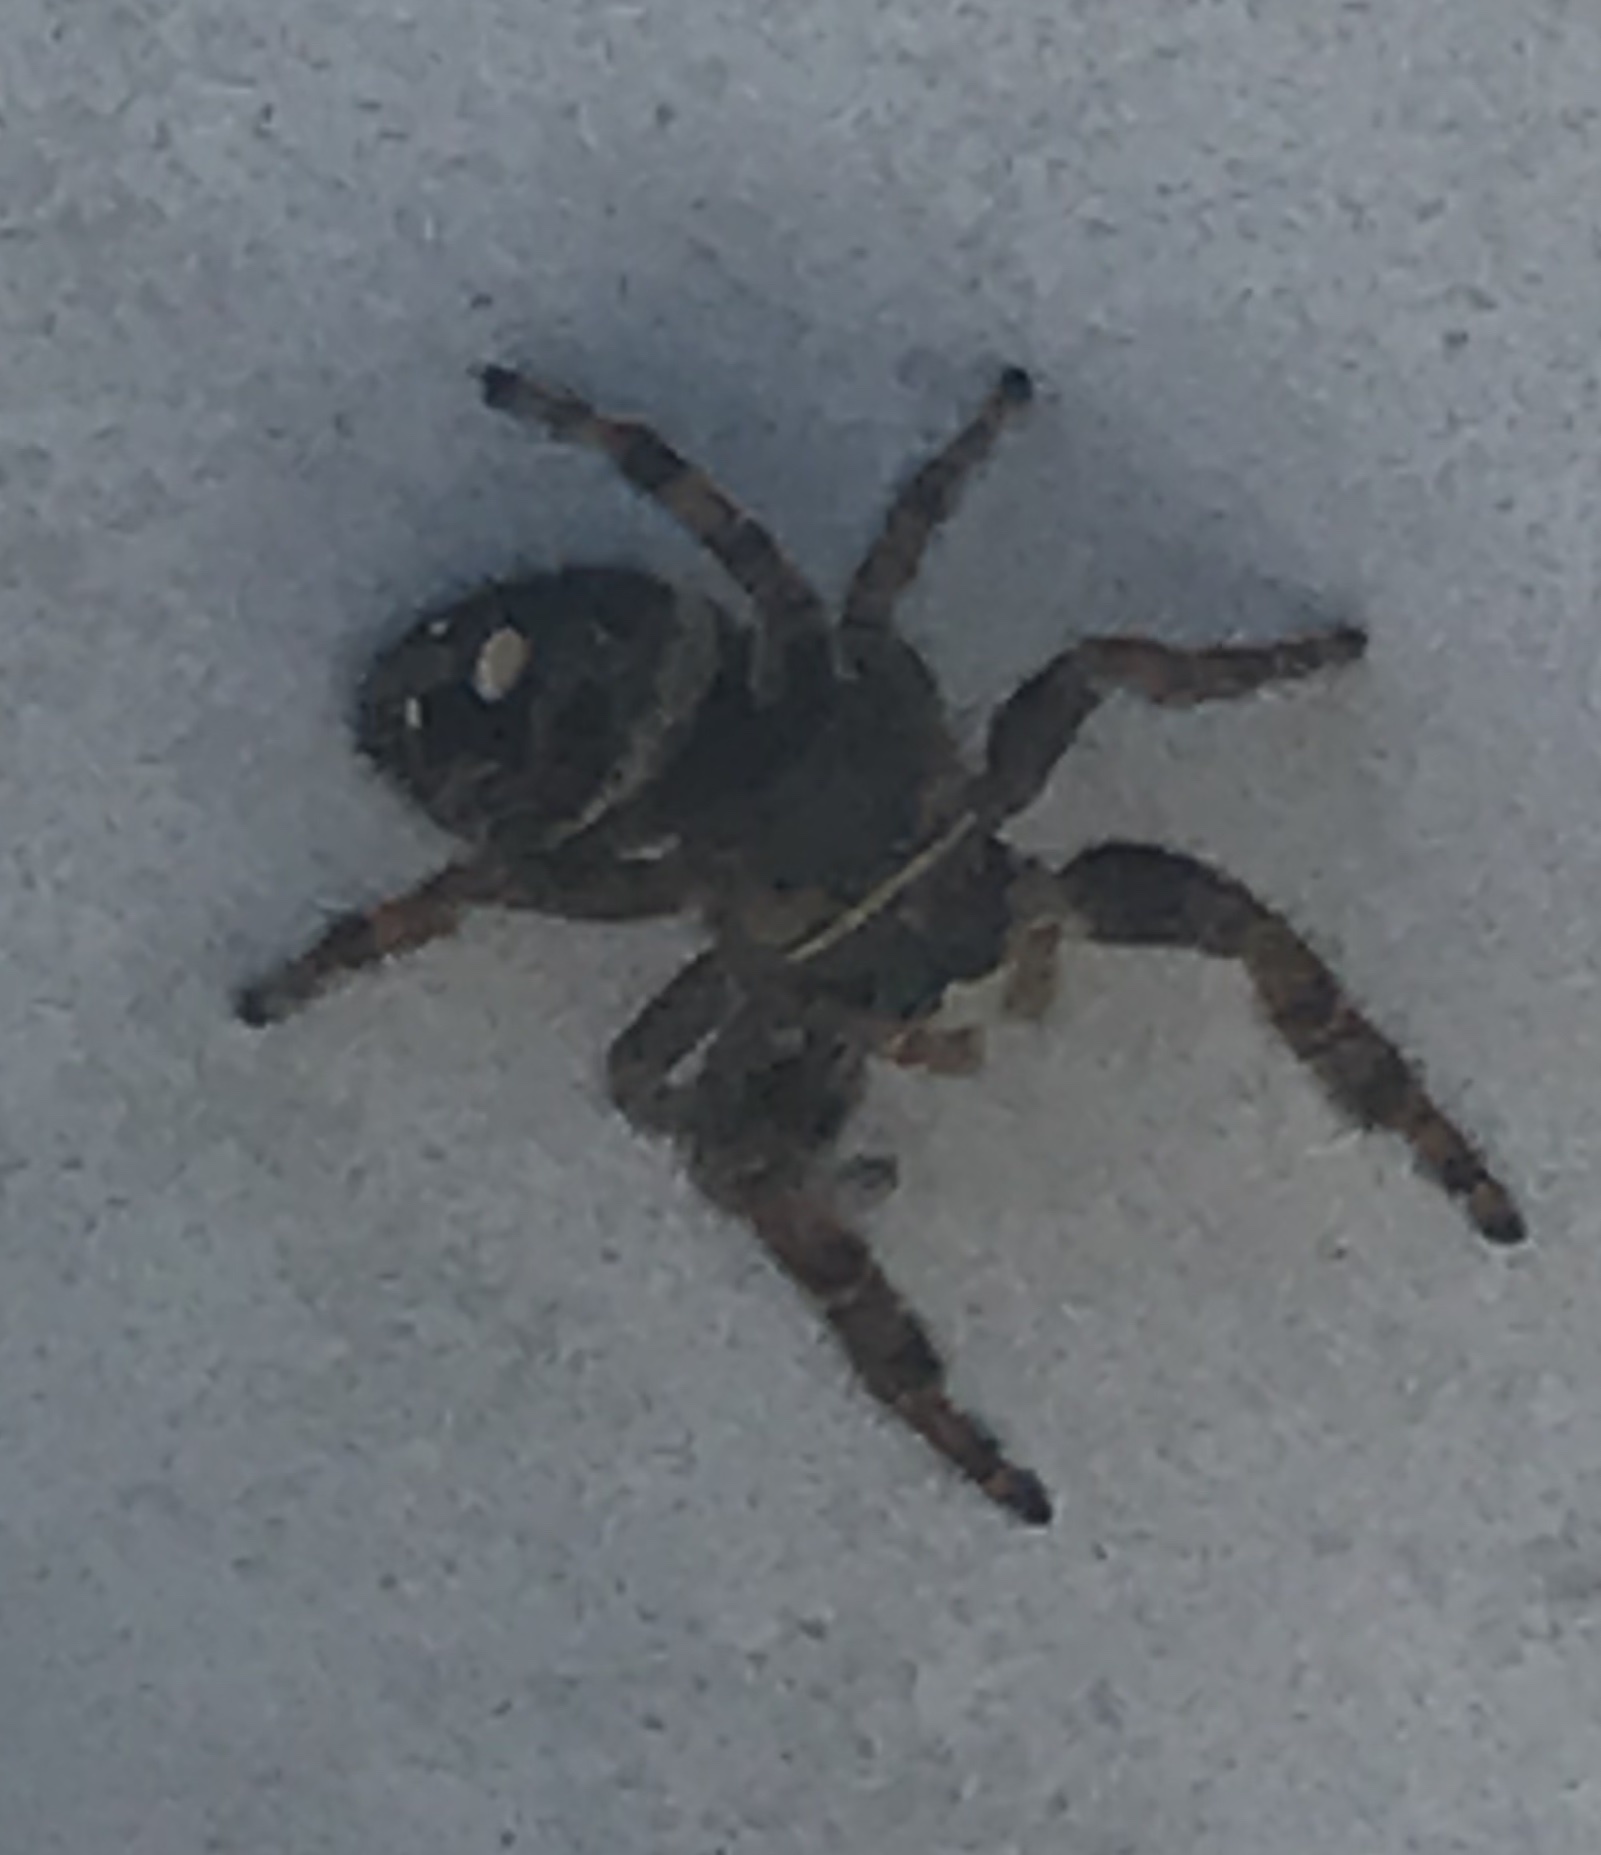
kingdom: Animalia
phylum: Arthropoda
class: Arachnida
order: Araneae
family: Salticidae
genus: Phidippus
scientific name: Phidippus audax
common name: Bold jumper
